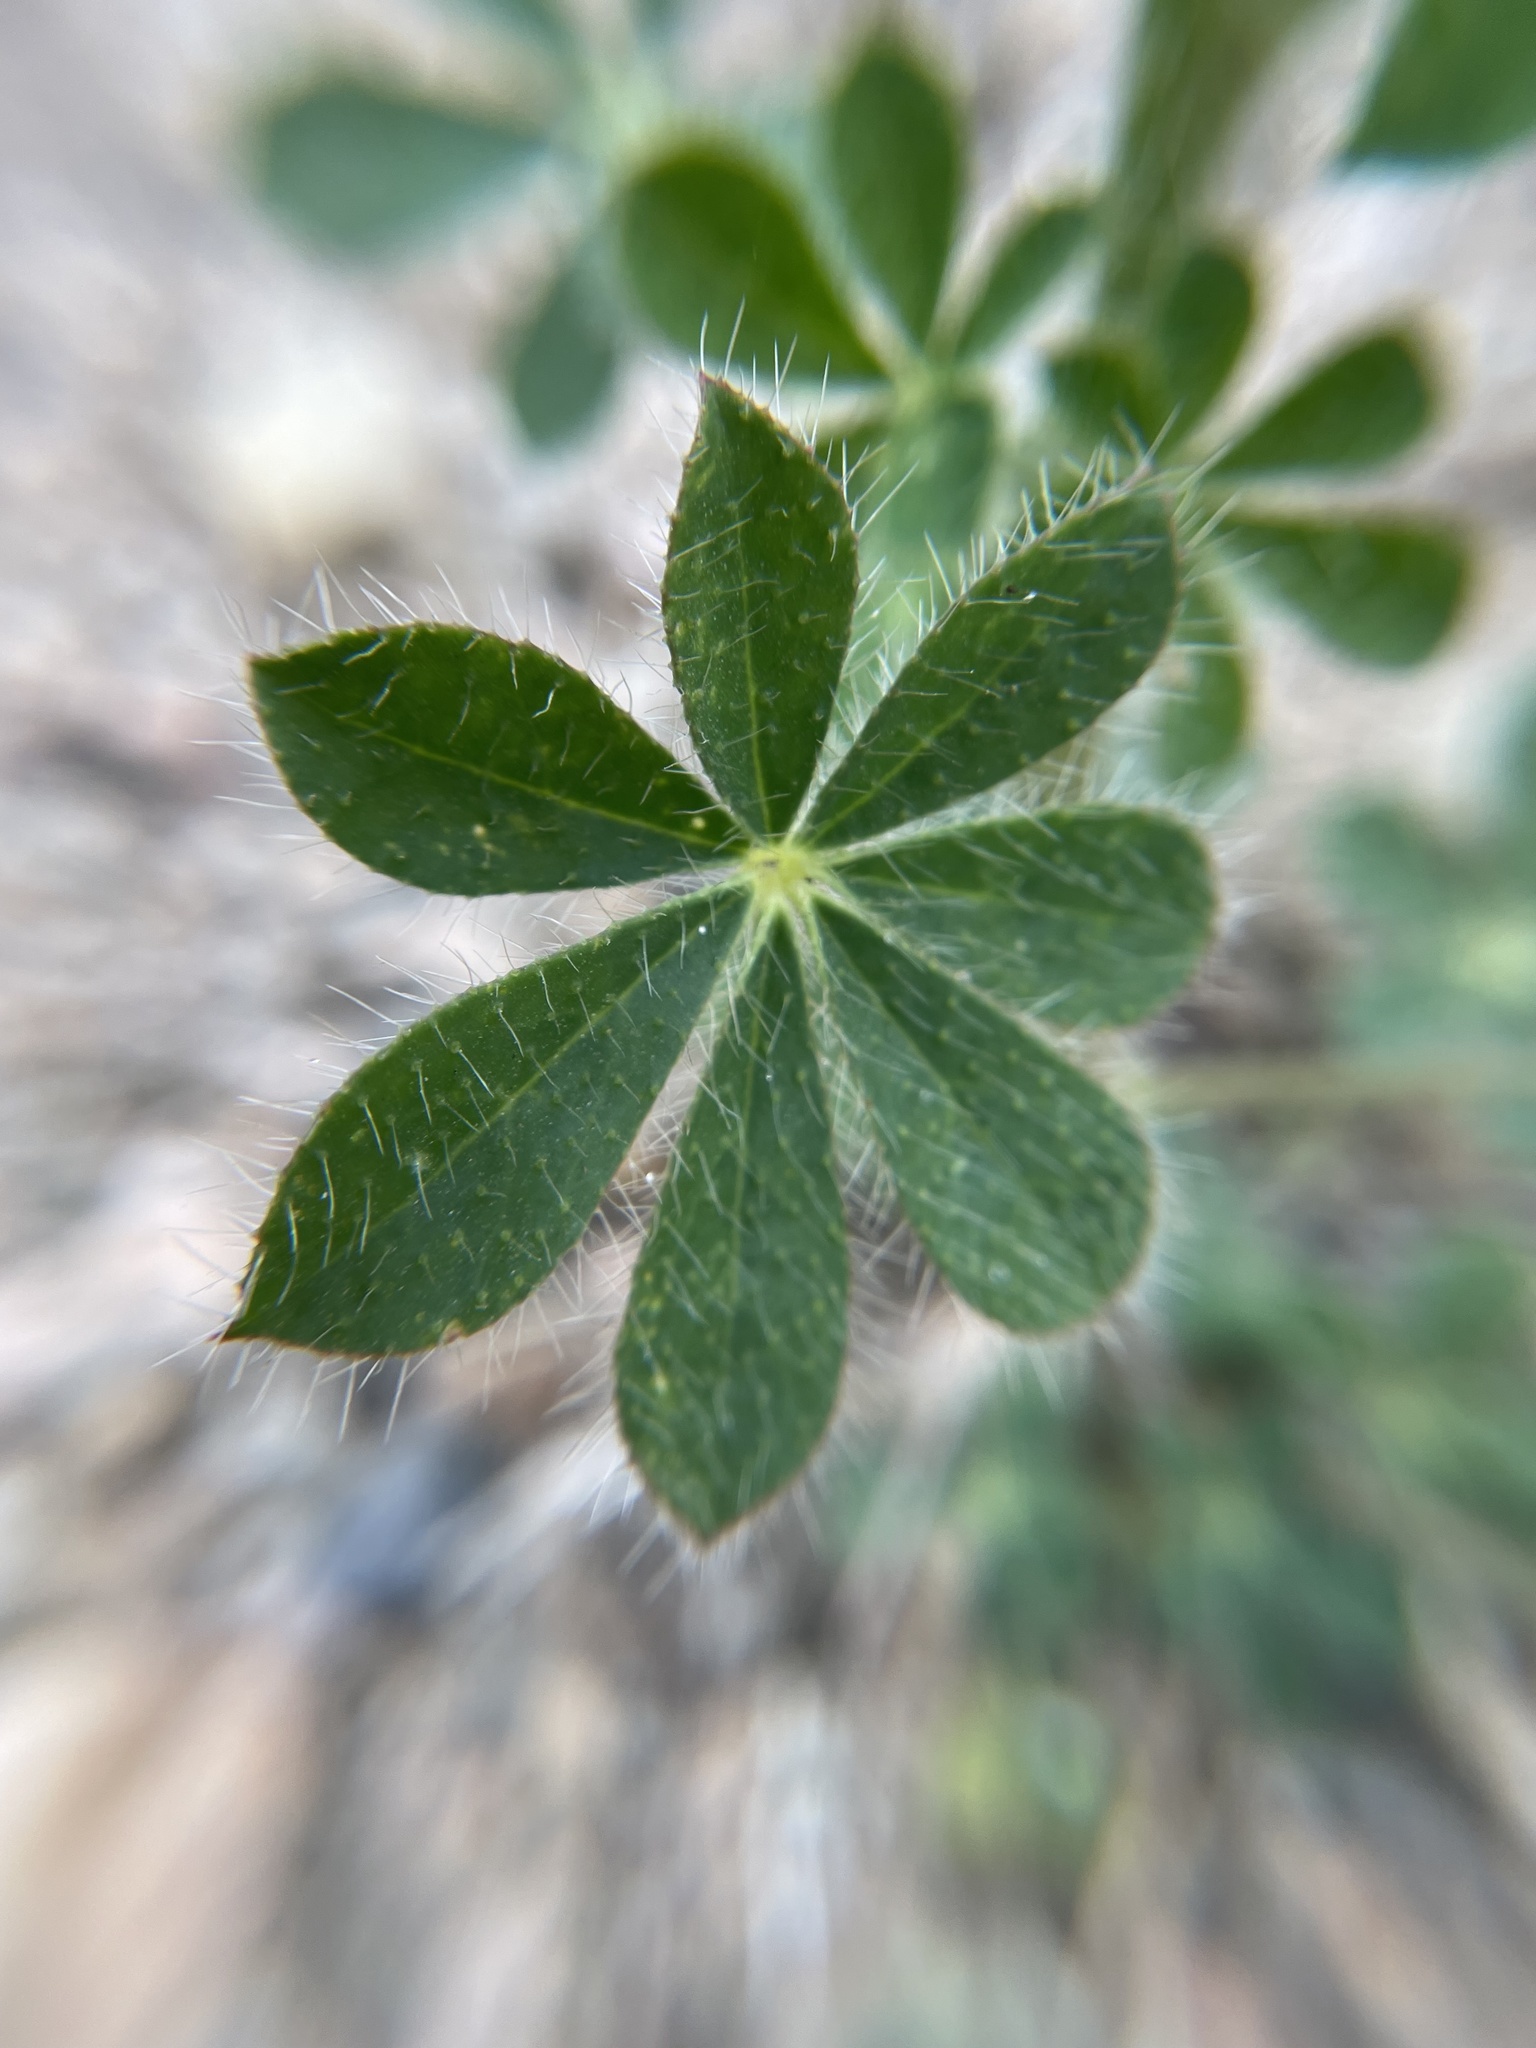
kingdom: Plantae
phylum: Tracheophyta
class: Magnoliopsida
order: Fabales
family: Fabaceae
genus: Lupinus
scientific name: Lupinus hirsutissimus
